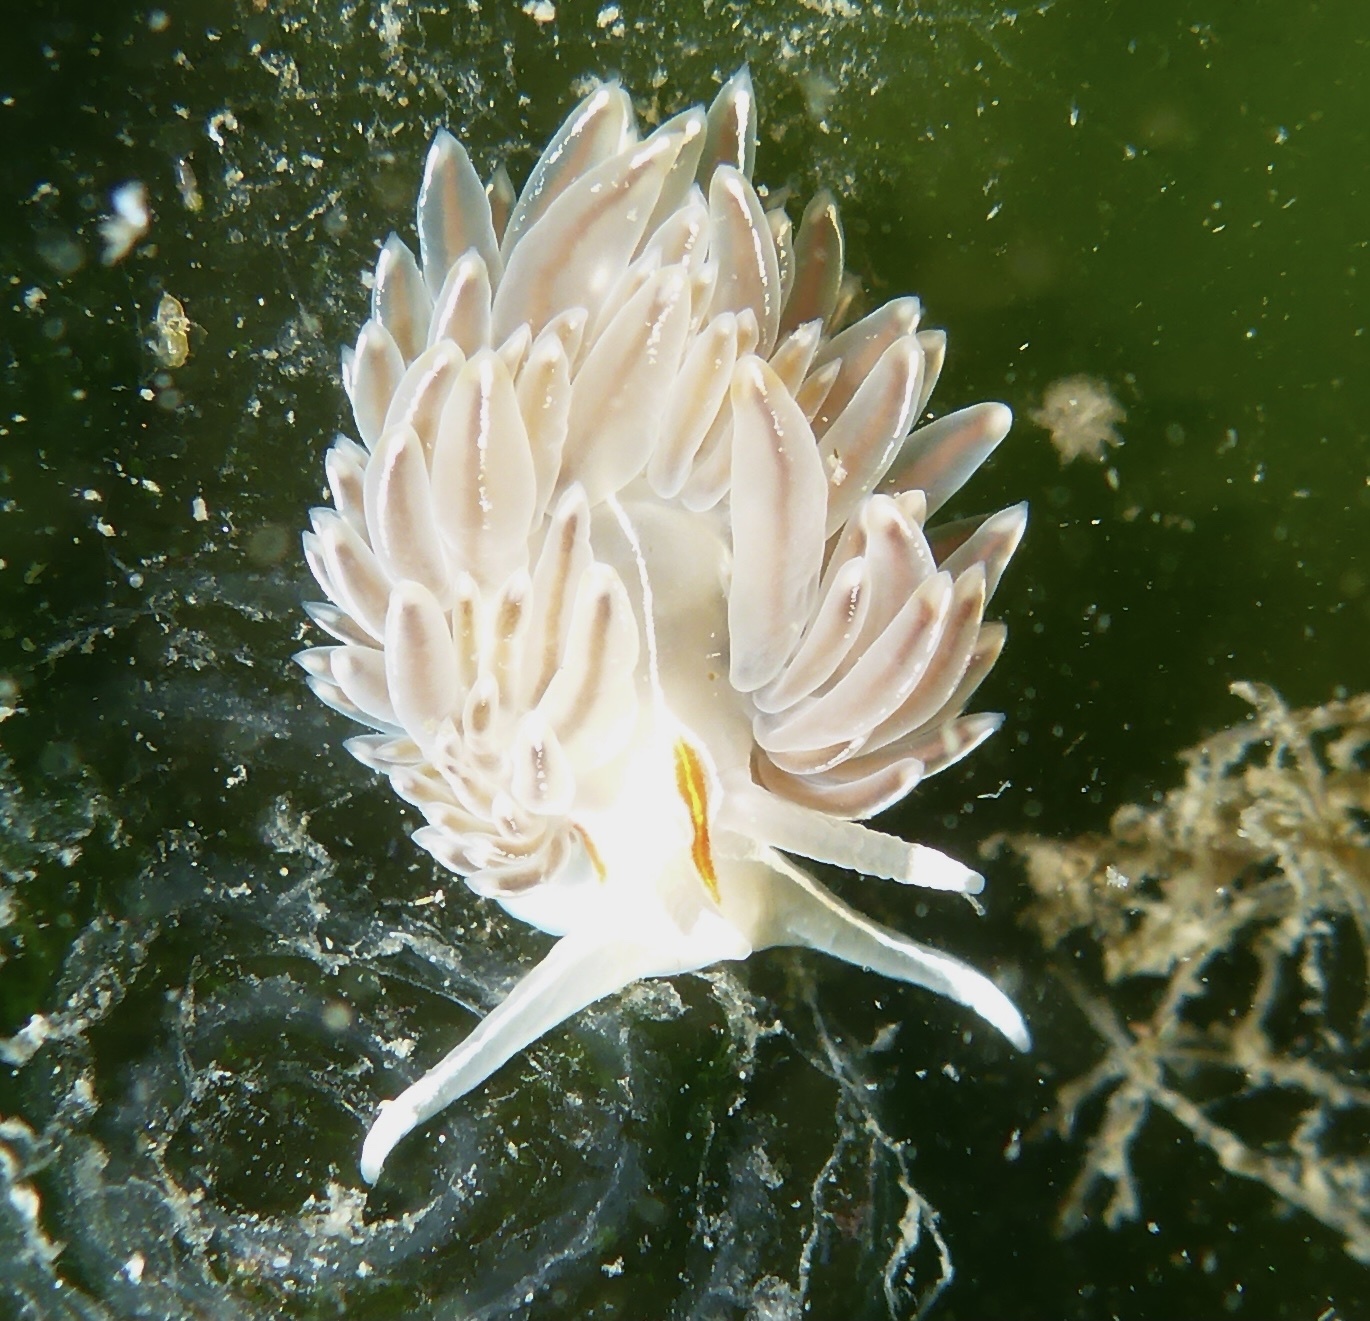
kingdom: Animalia
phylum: Mollusca
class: Gastropoda
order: Nudibranchia
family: Myrrhinidae
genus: Hermissenda
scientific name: Hermissenda crassicornis
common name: Hermissenda
